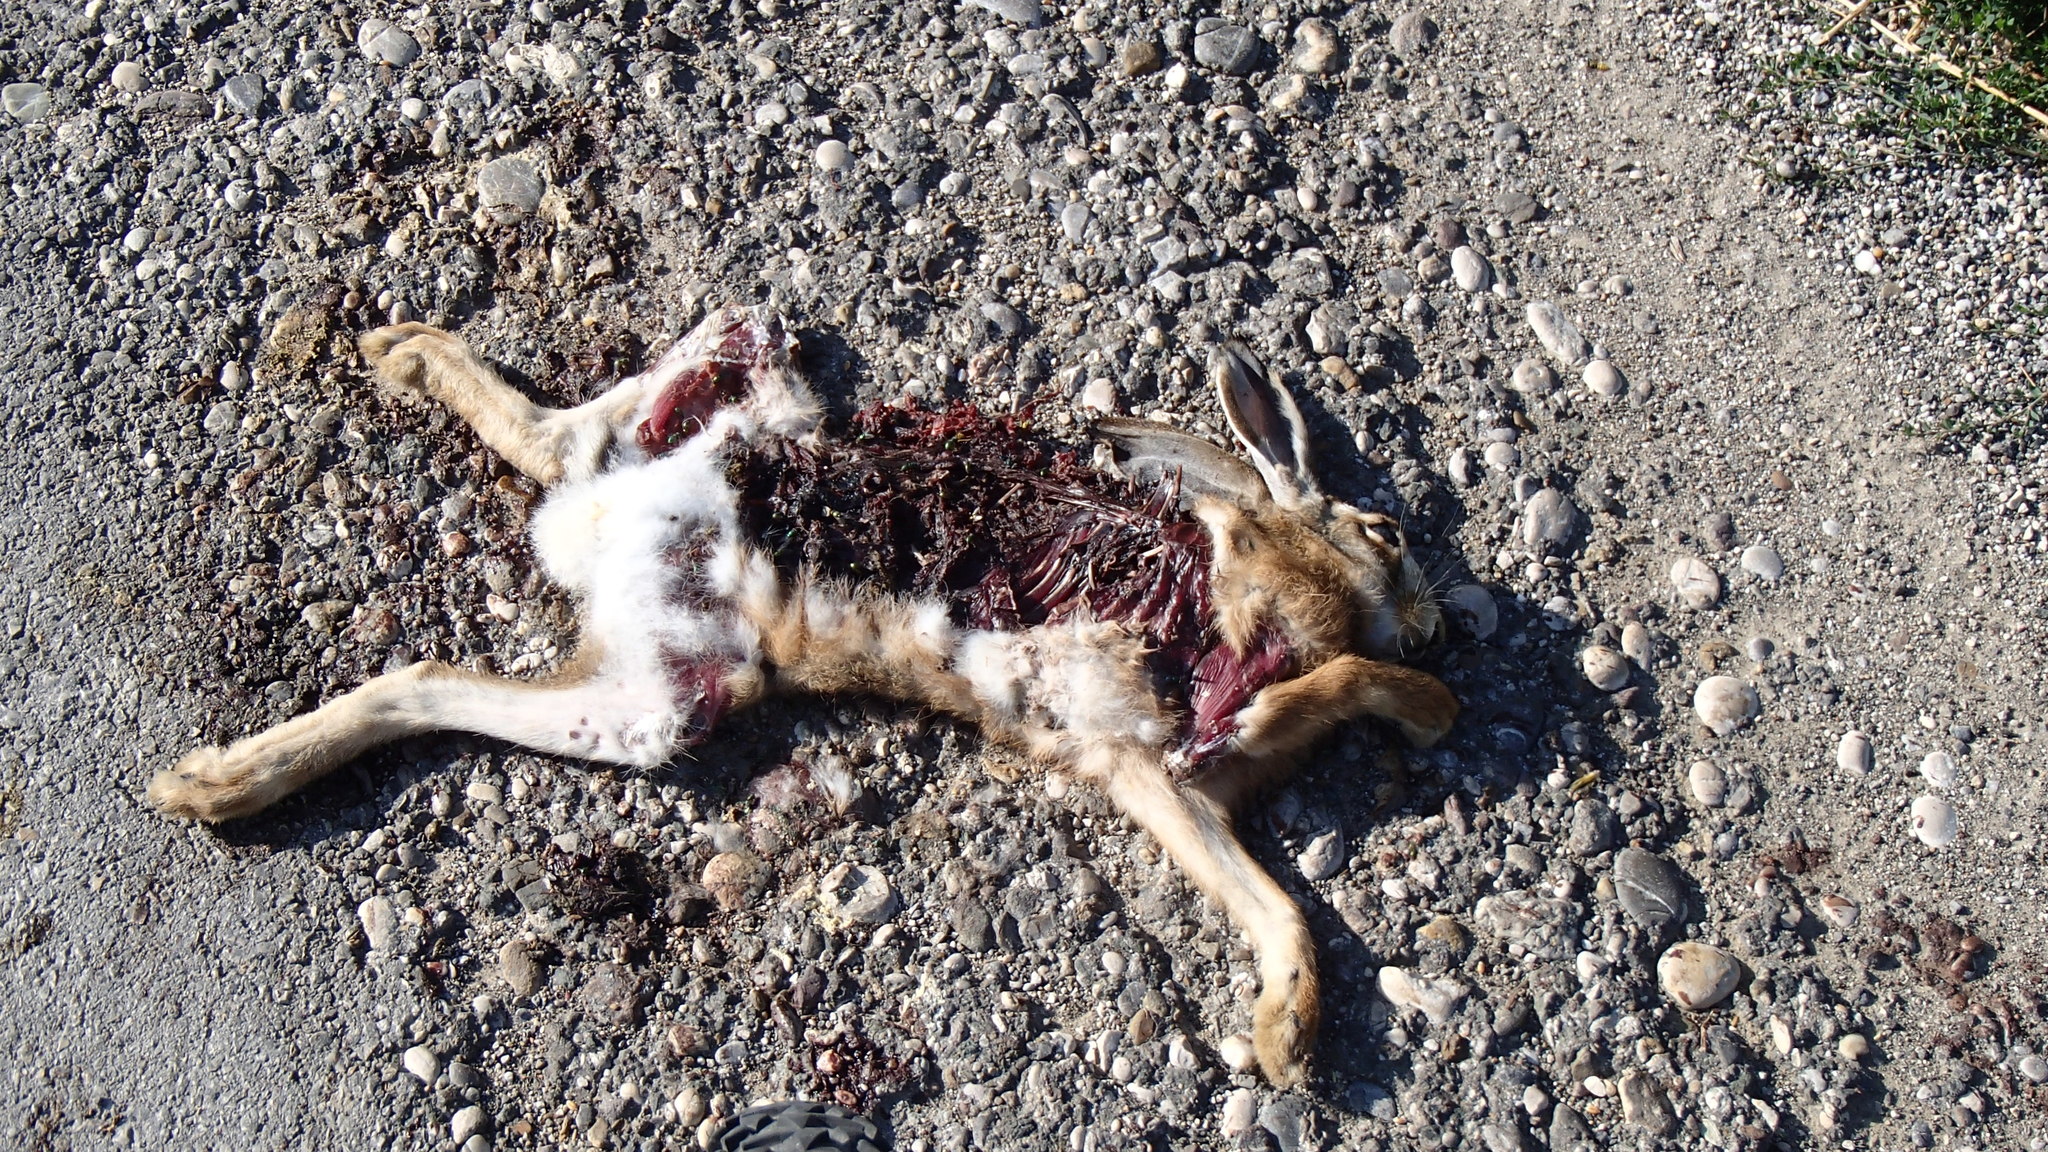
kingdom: Animalia
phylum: Chordata
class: Mammalia
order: Lagomorpha
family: Leporidae
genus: Lepus
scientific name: Lepus europaeus
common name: European hare
